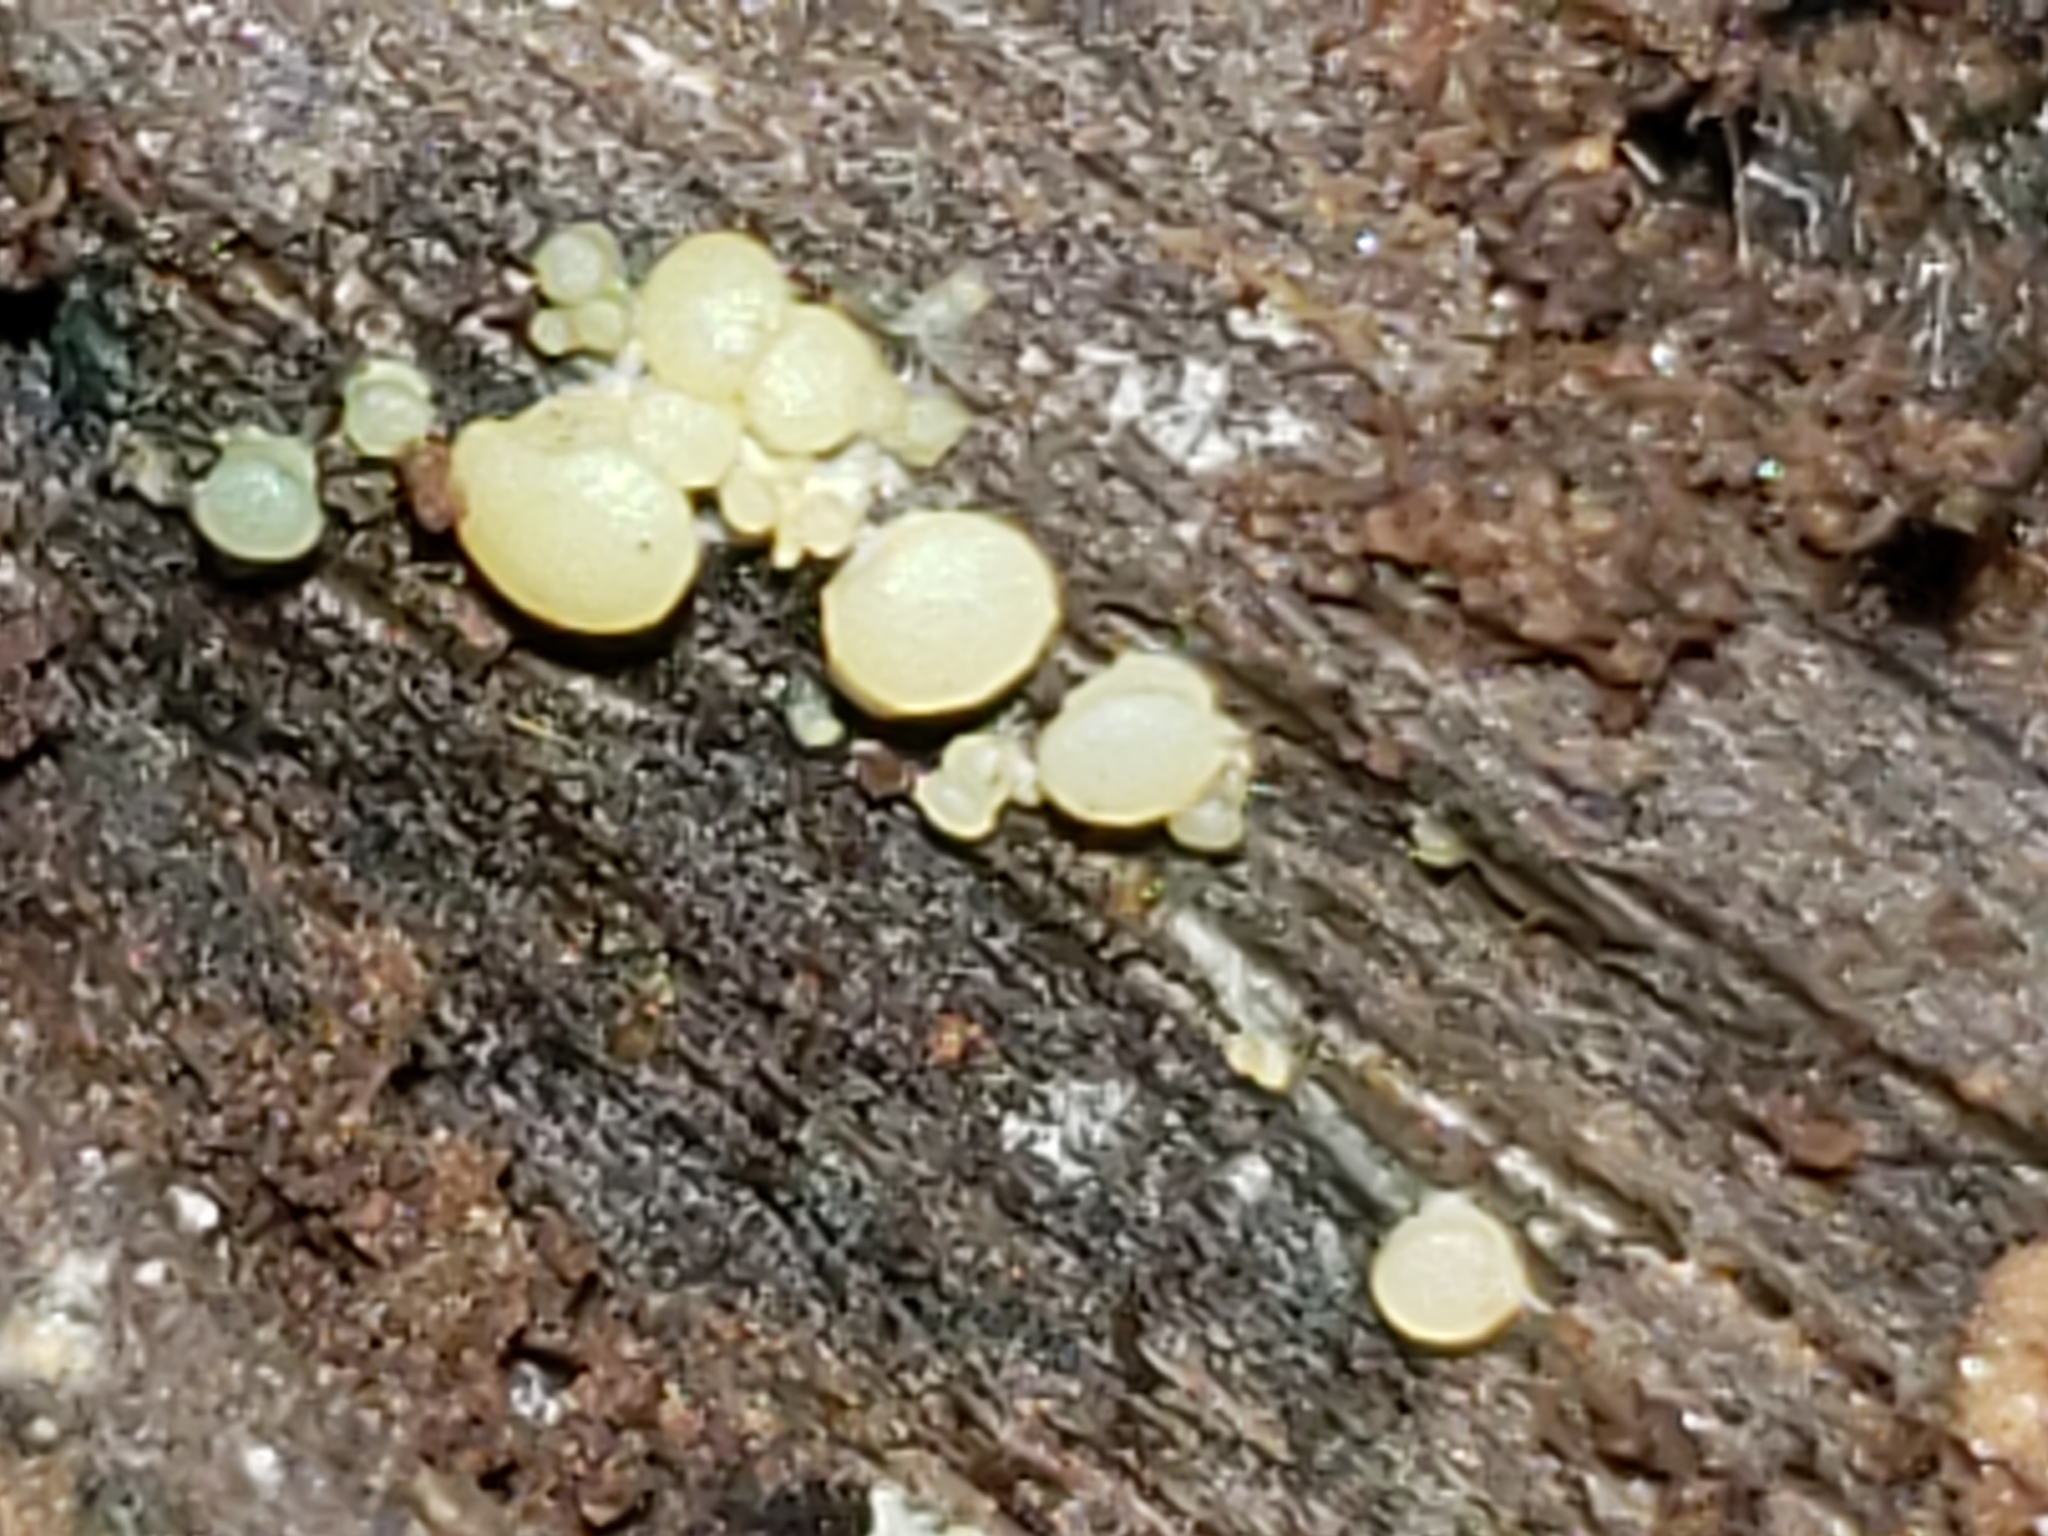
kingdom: Fungi
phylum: Ascomycota
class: Leotiomycetes
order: Leotiales
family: Tympanidaceae
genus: Claussenomyces
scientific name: Claussenomyces prasinulus
